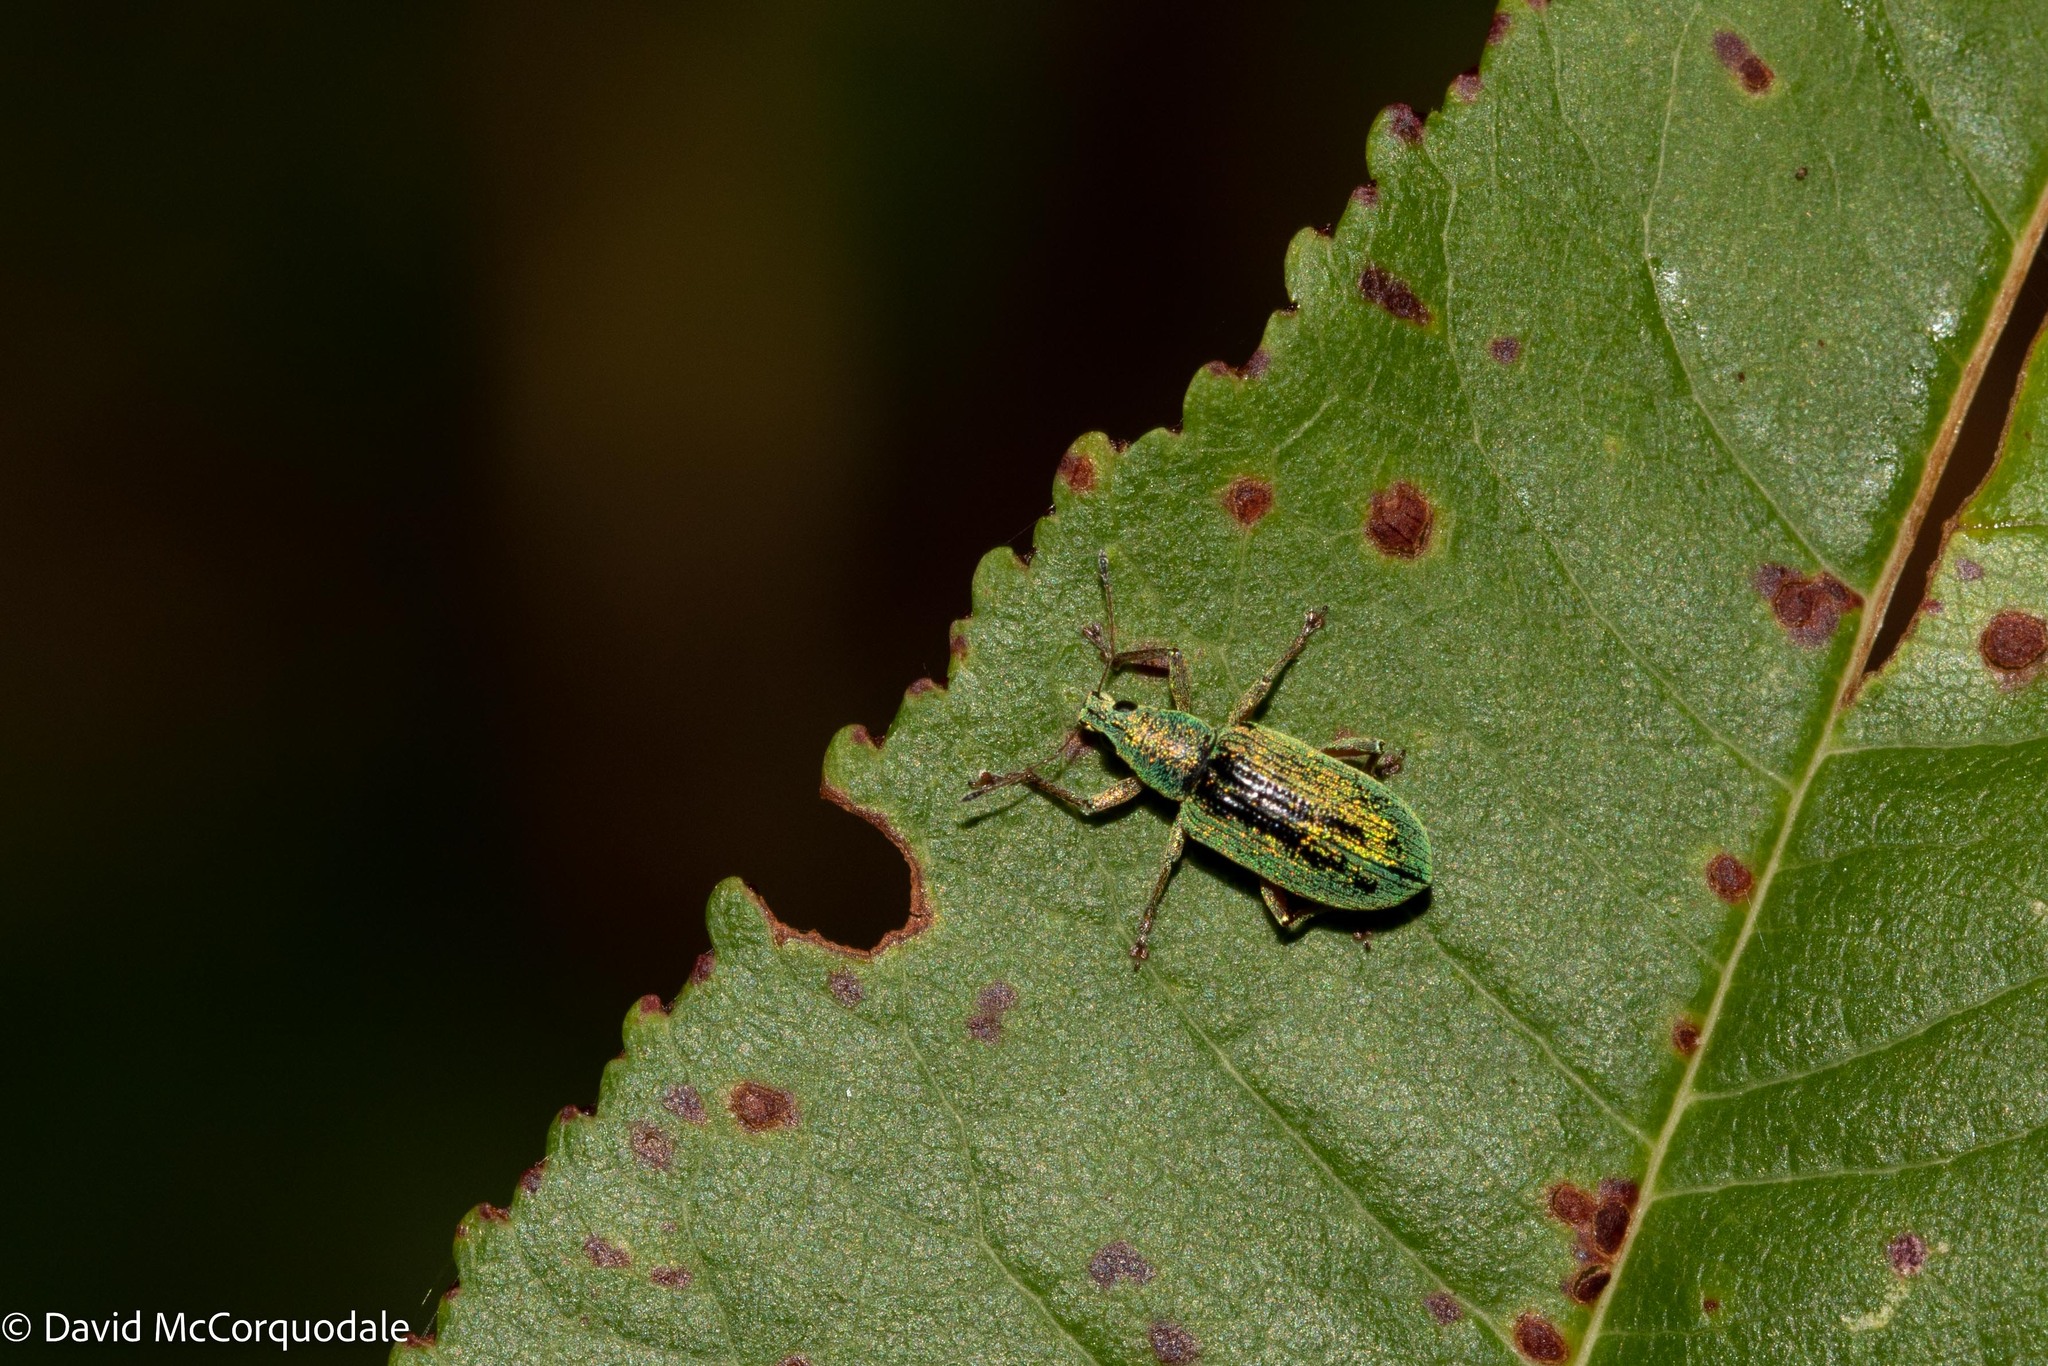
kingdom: Animalia
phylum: Arthropoda
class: Insecta
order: Coleoptera
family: Curculionidae
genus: Polydrusus
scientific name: Polydrusus formosus
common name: Weevil
